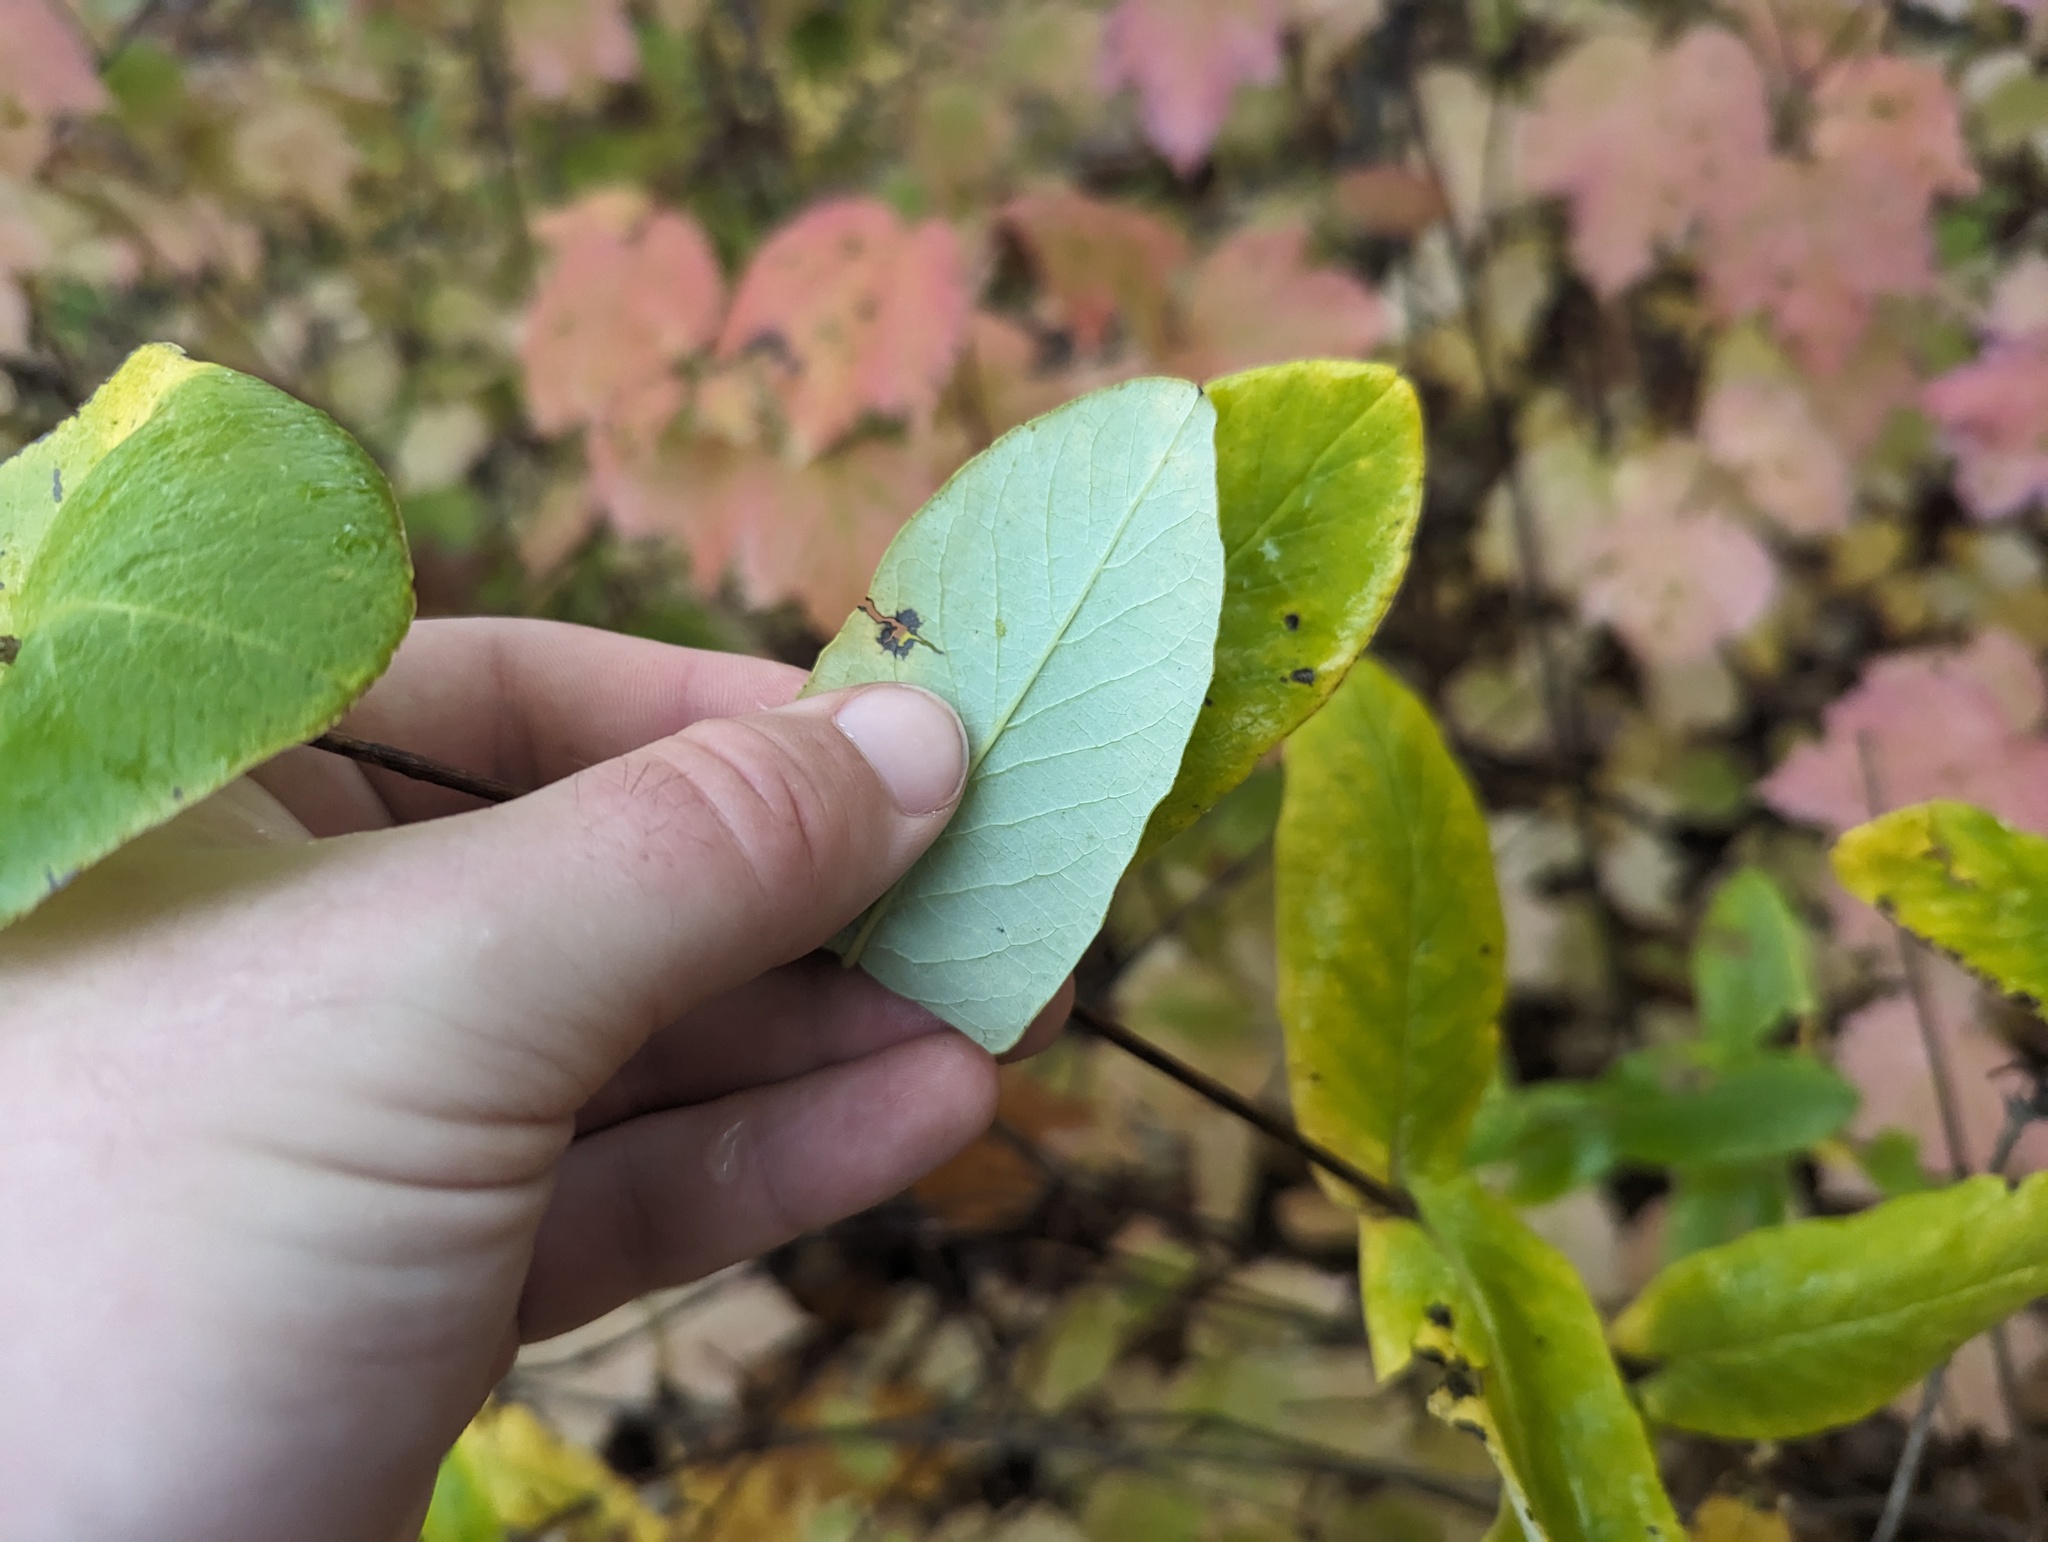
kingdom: Plantae
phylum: Tracheophyta
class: Magnoliopsida
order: Dipsacales
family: Caprifoliaceae
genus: Lonicera
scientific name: Lonicera dioica
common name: Limber honeysuckle
